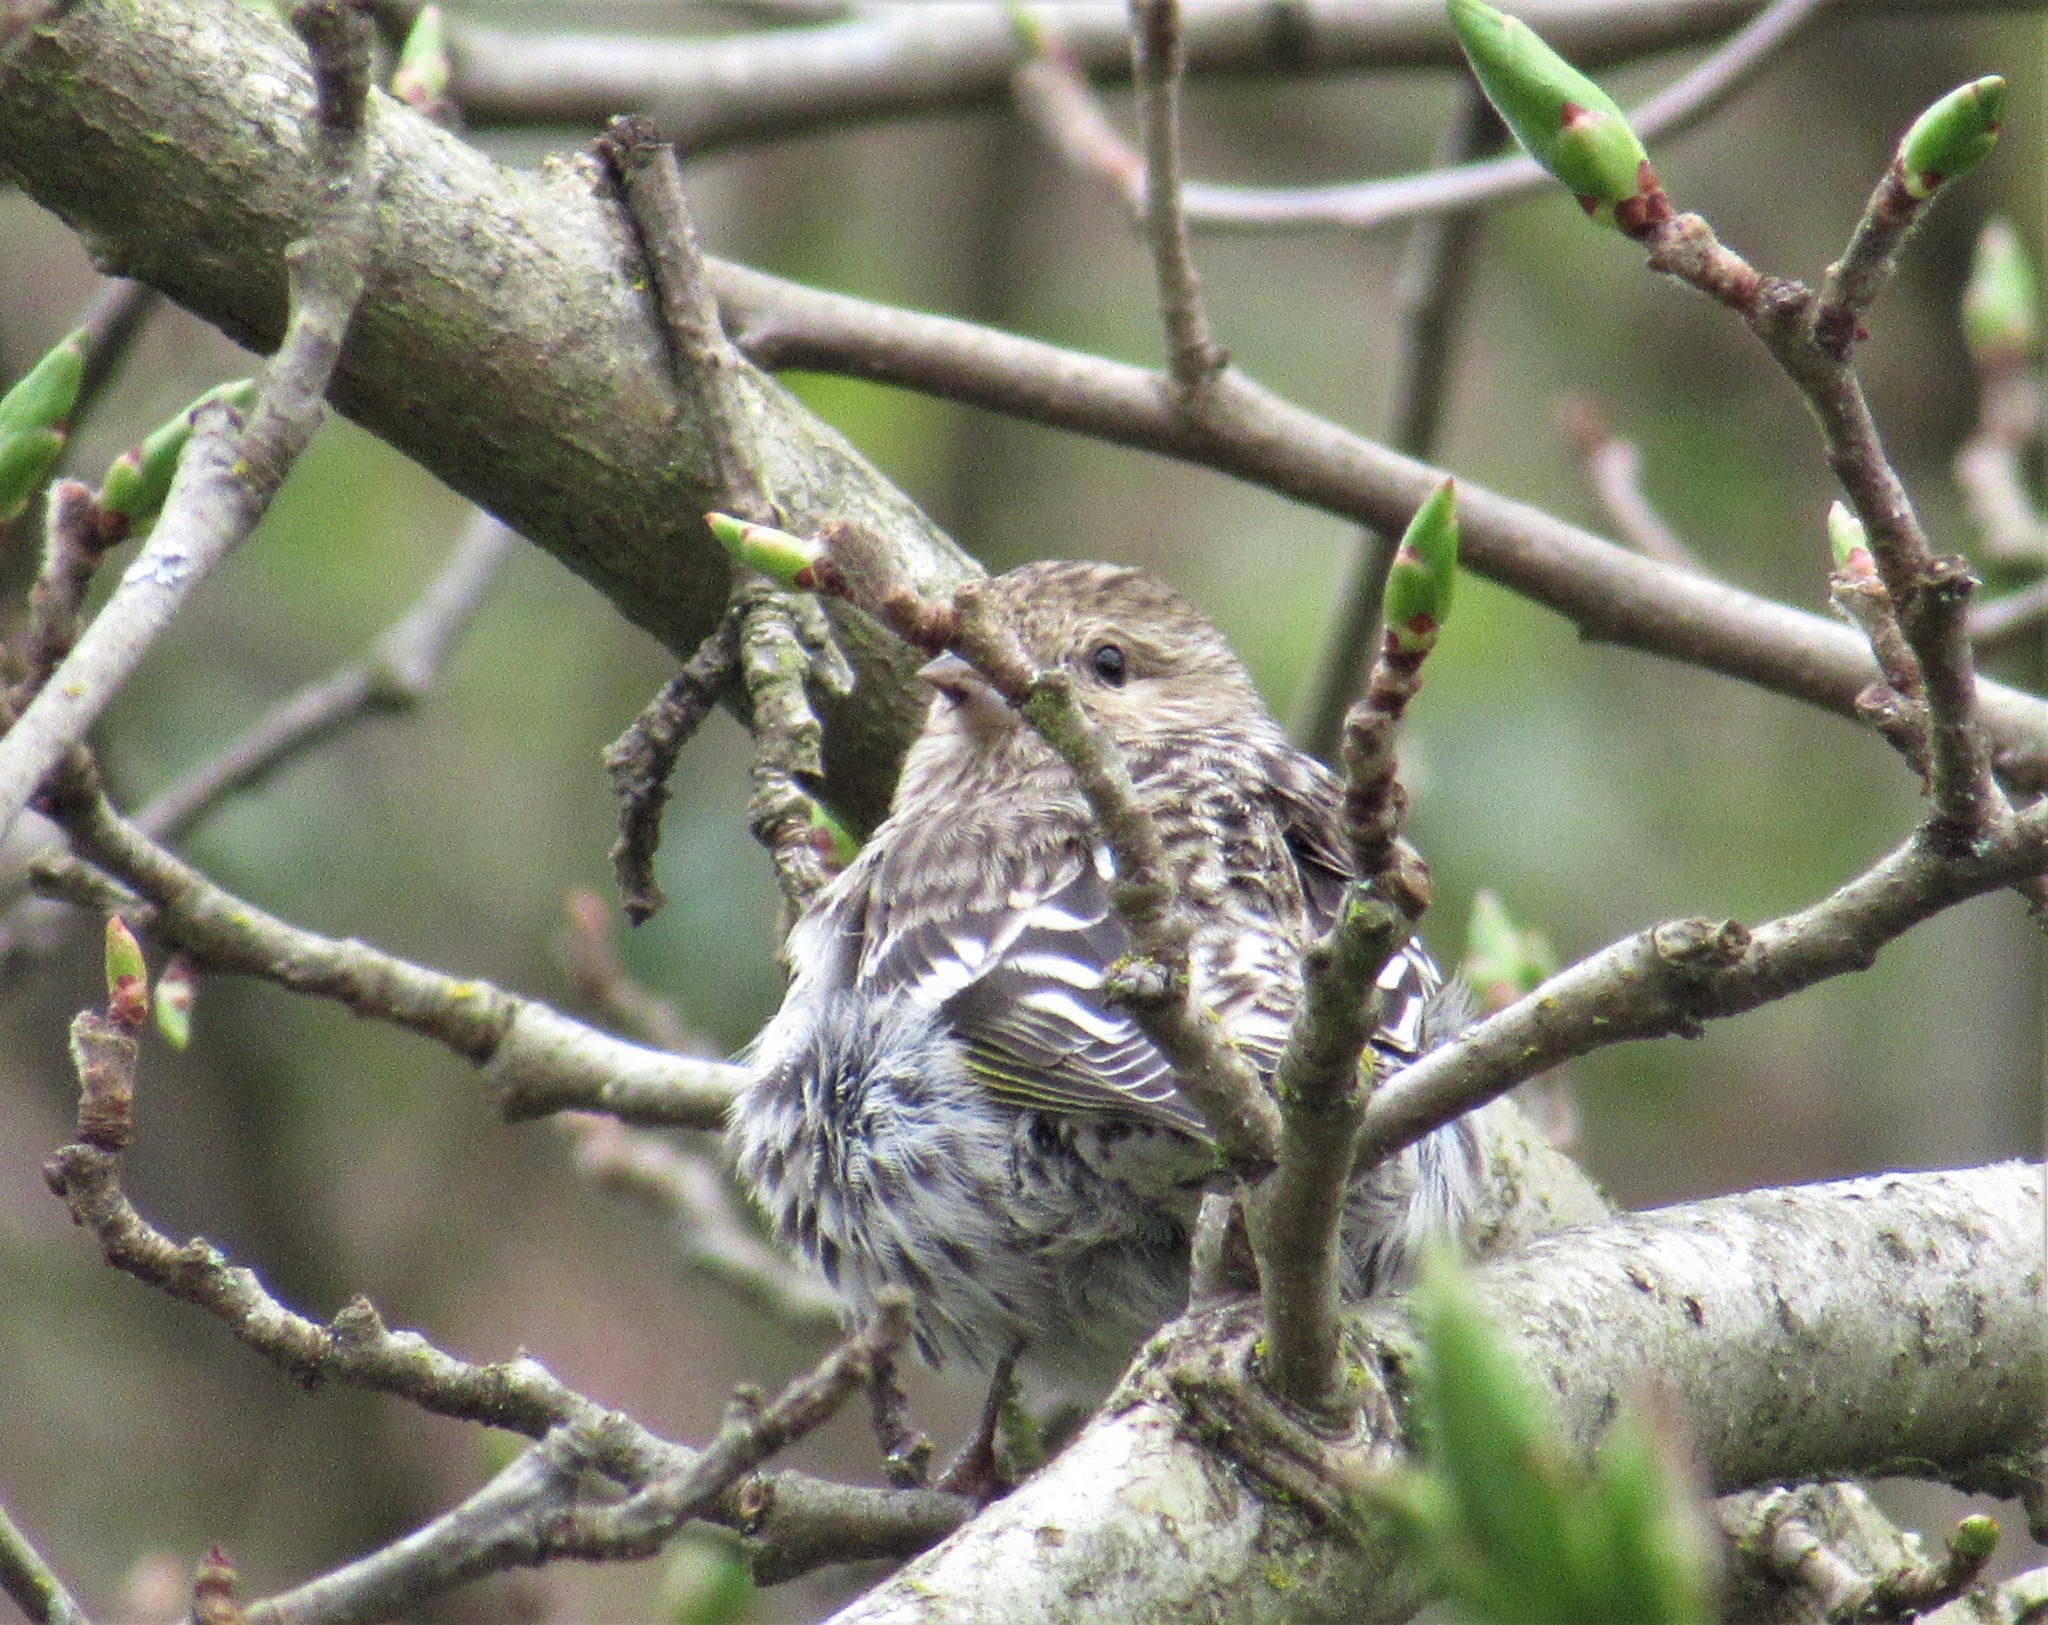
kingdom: Animalia
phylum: Chordata
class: Aves
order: Passeriformes
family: Fringillidae
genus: Spinus
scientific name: Spinus pinus
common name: Pine siskin
